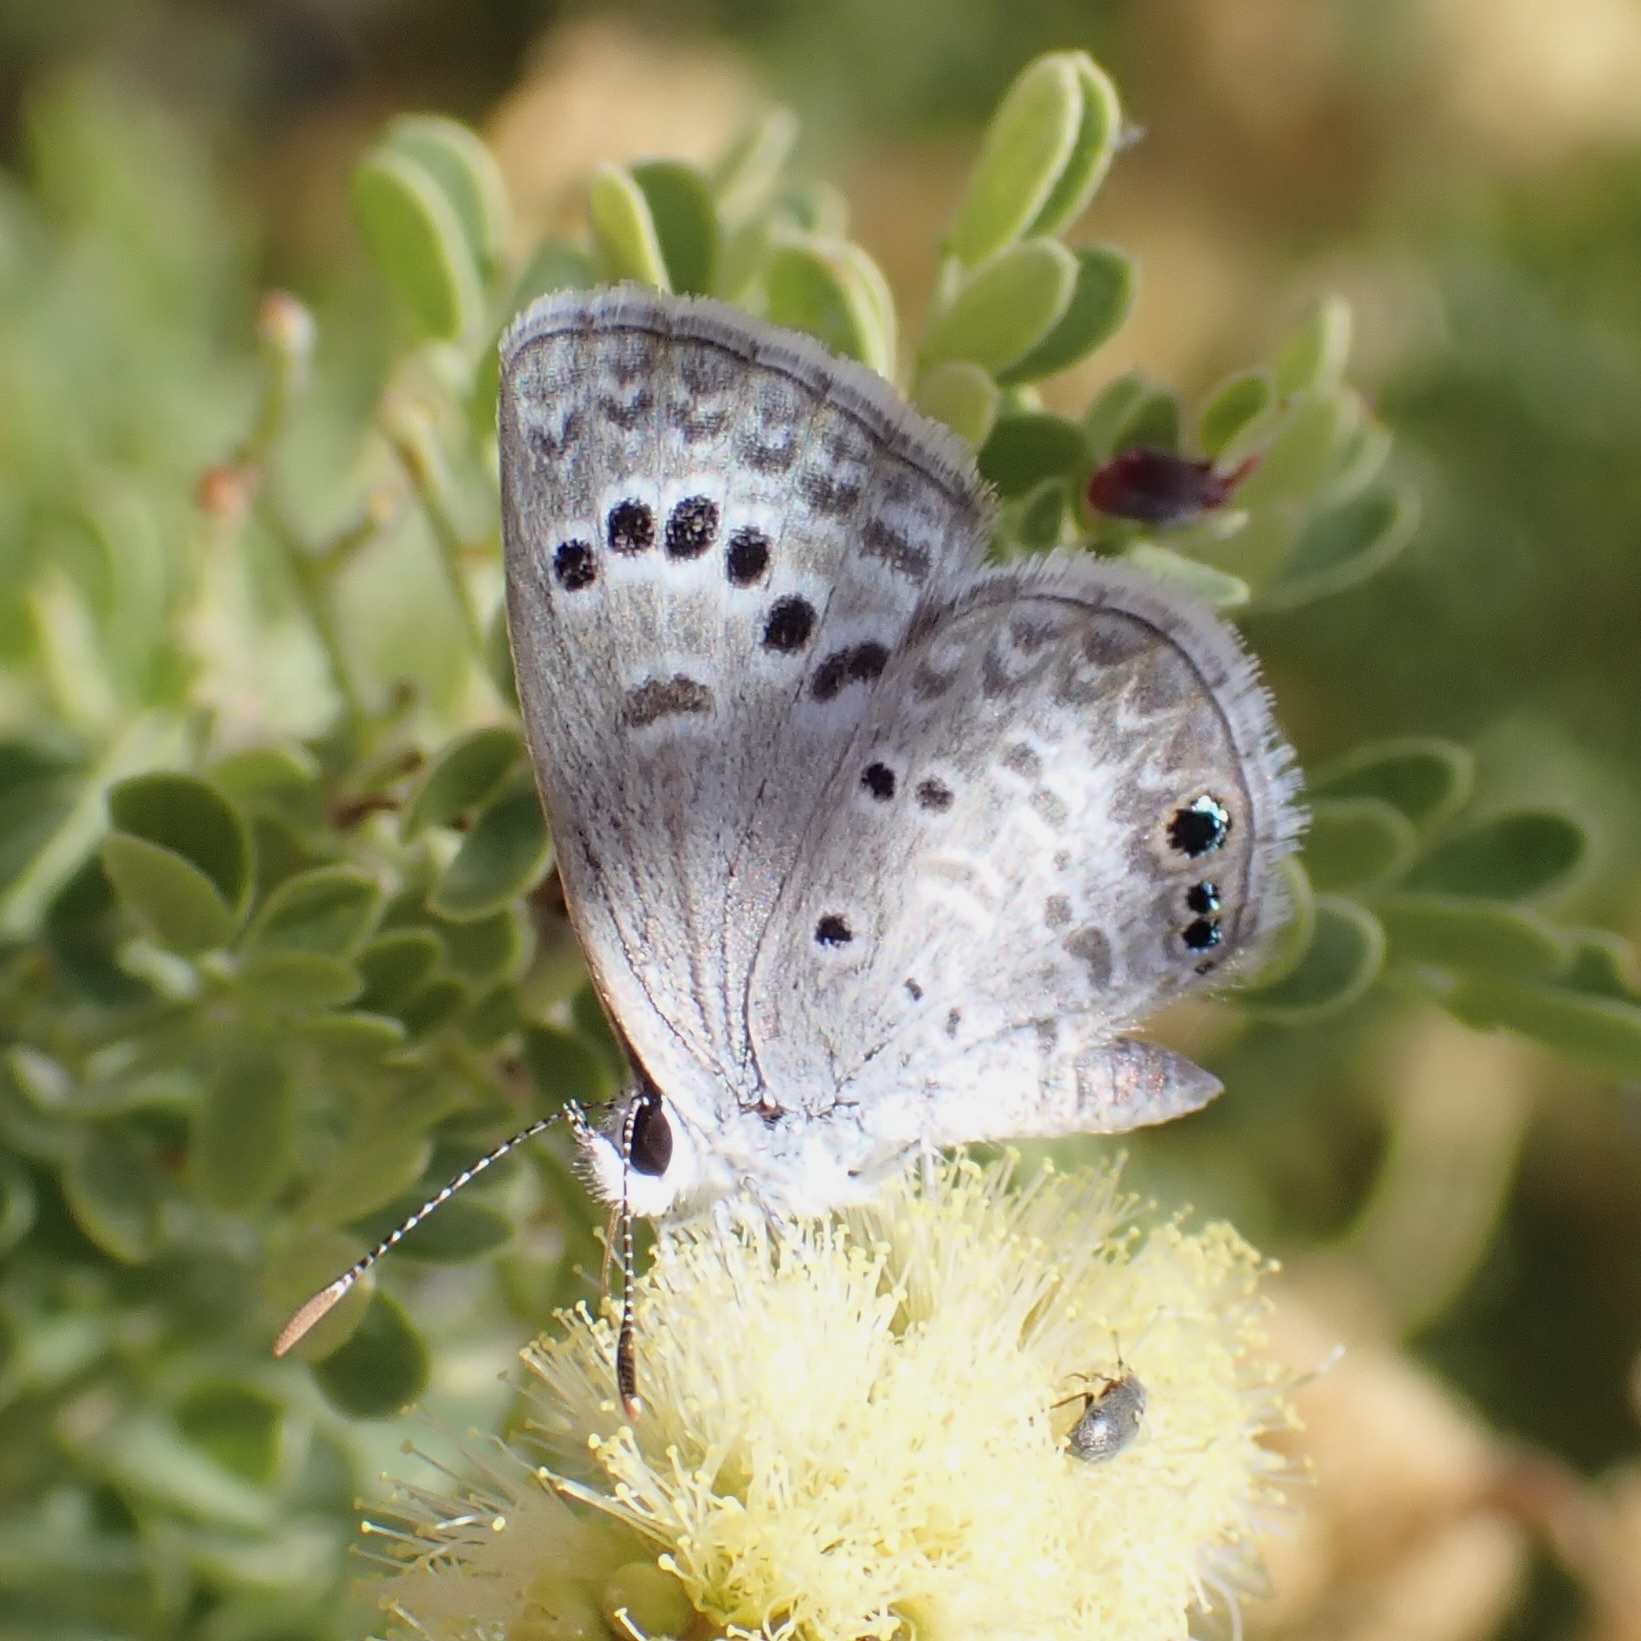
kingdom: Animalia
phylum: Arthropoda
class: Insecta
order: Lepidoptera
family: Lycaenidae
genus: Echinargus
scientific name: Echinargus isola
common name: Reakirt's blue
